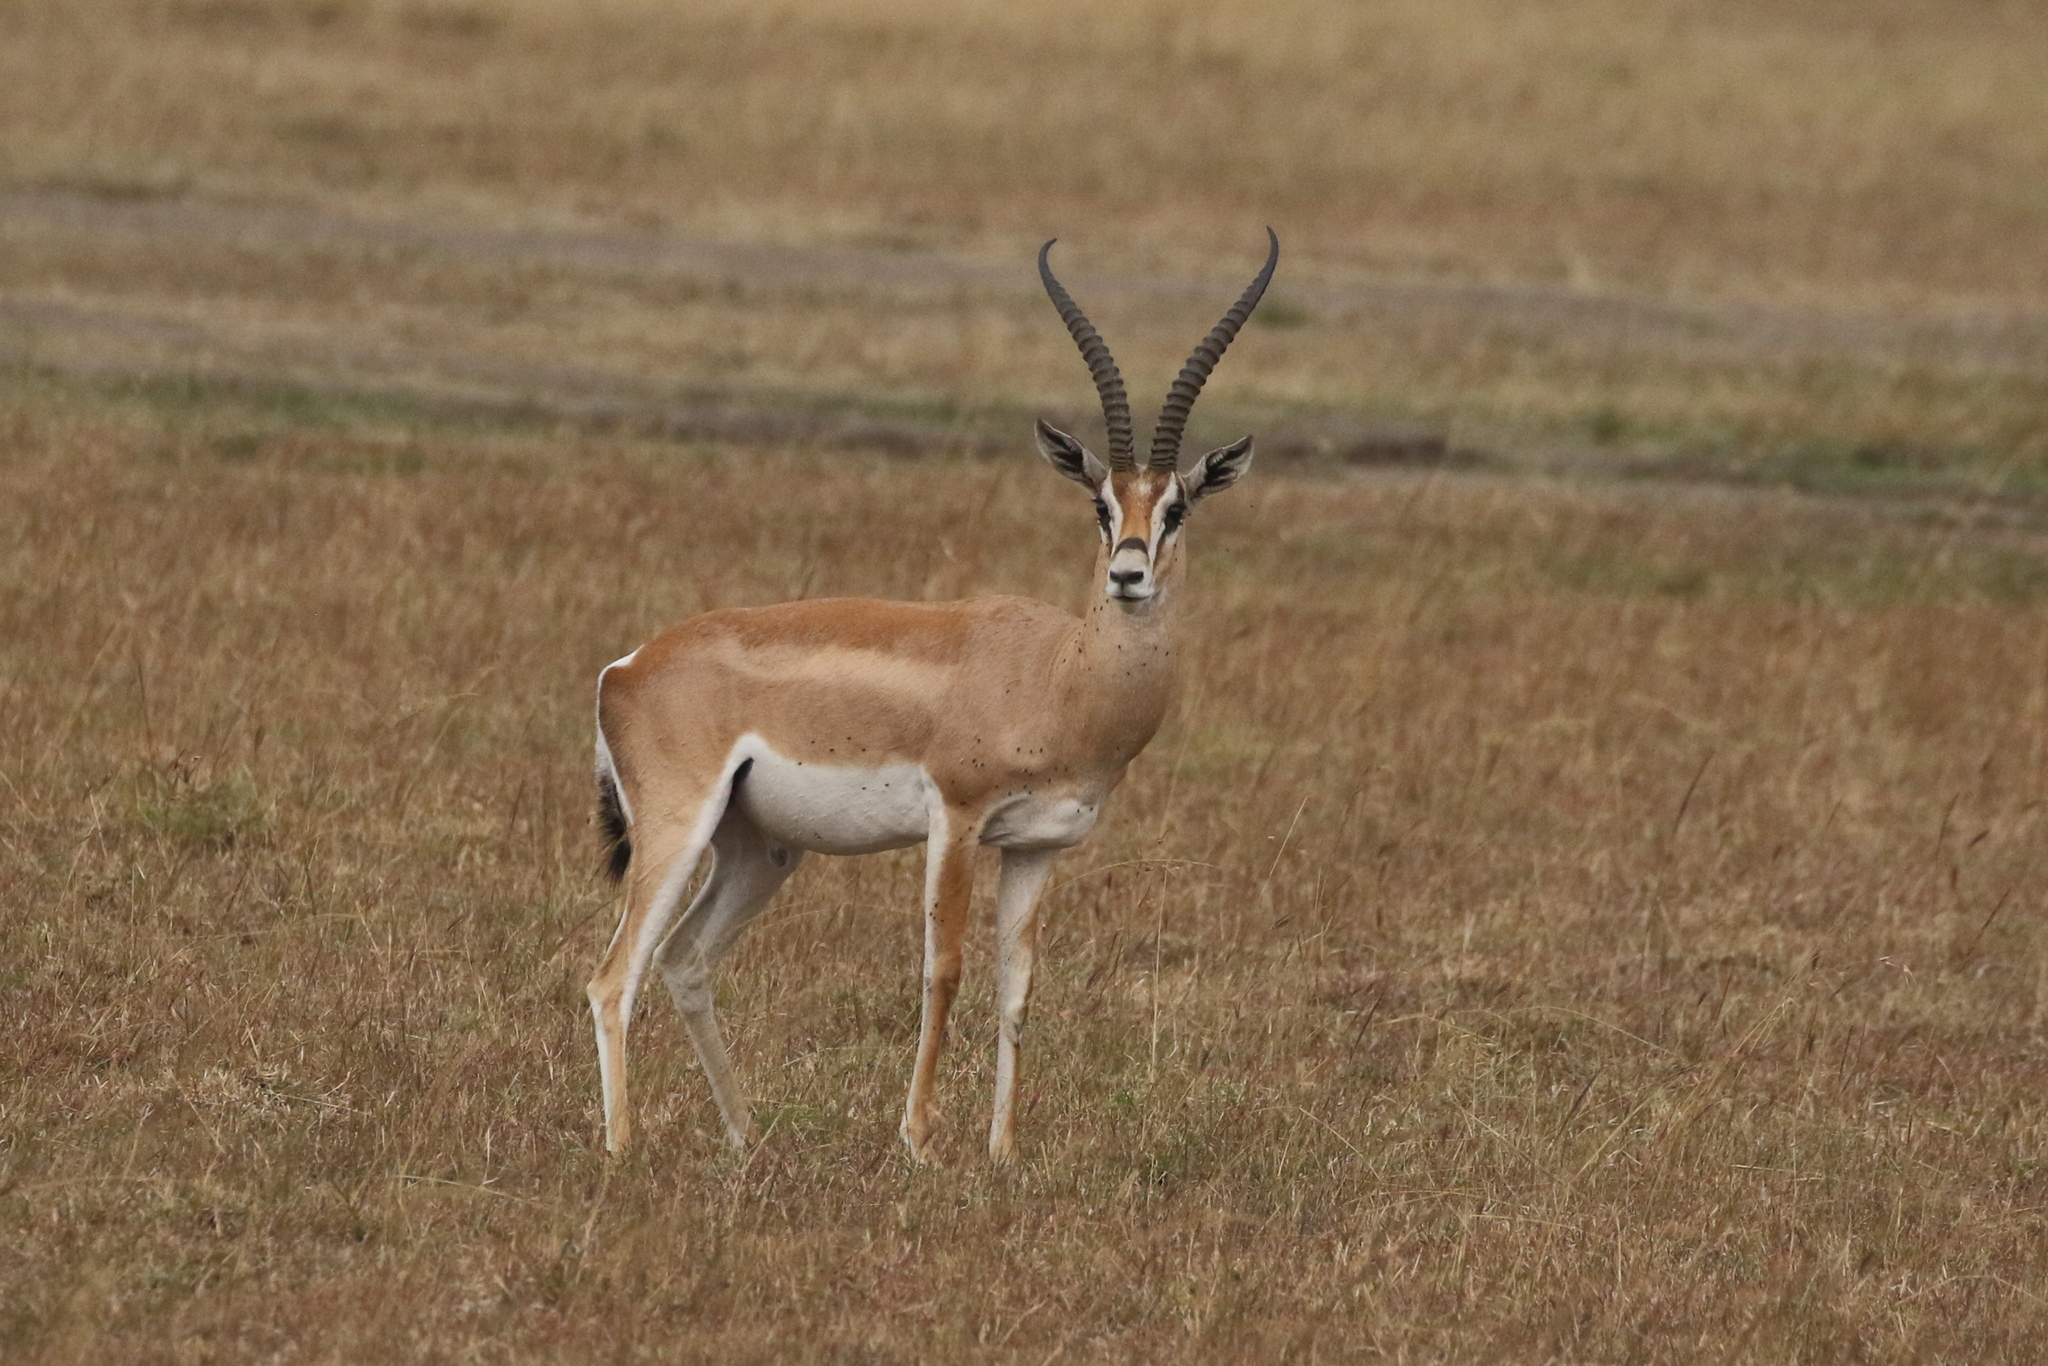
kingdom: Animalia
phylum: Chordata
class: Mammalia
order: Artiodactyla
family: Bovidae
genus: Nanger
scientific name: Nanger granti
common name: Grant's gazelle
